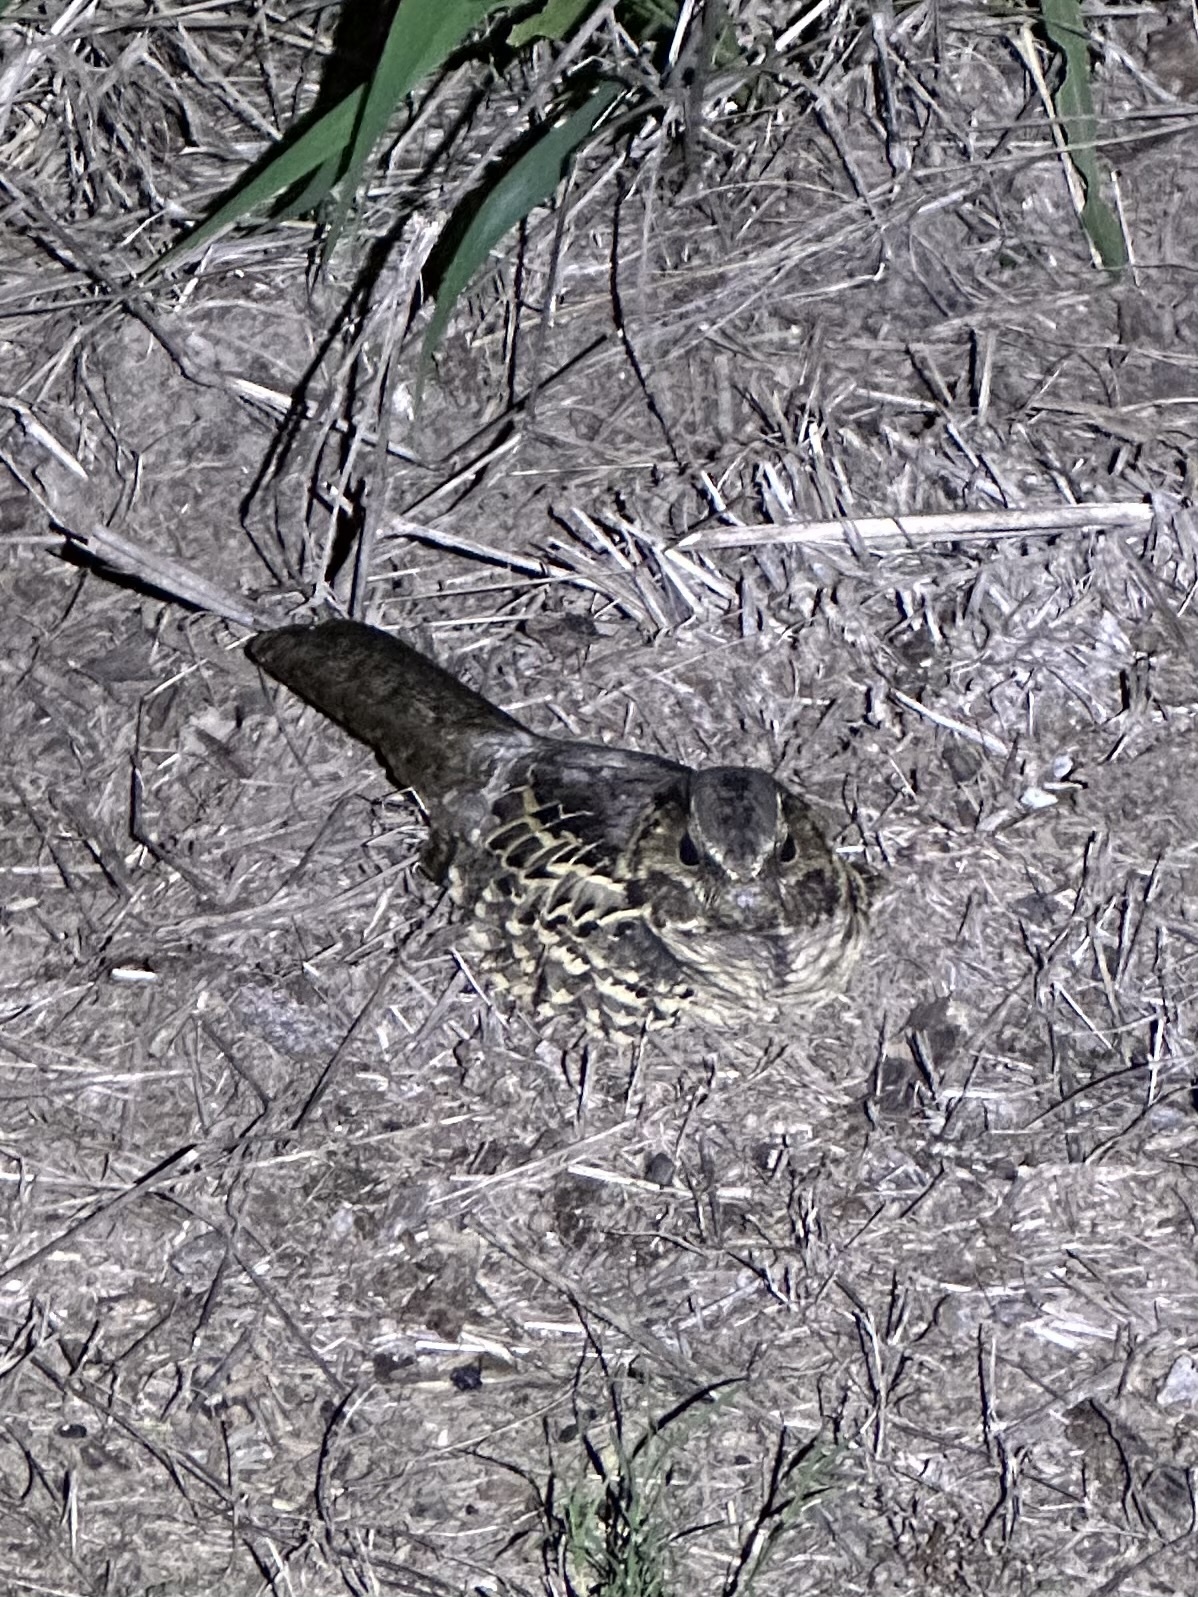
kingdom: Animalia
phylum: Chordata
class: Aves
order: Caprimulgiformes
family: Caprimulgidae
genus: Nyctidromus
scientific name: Nyctidromus albicollis
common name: Pauraque
